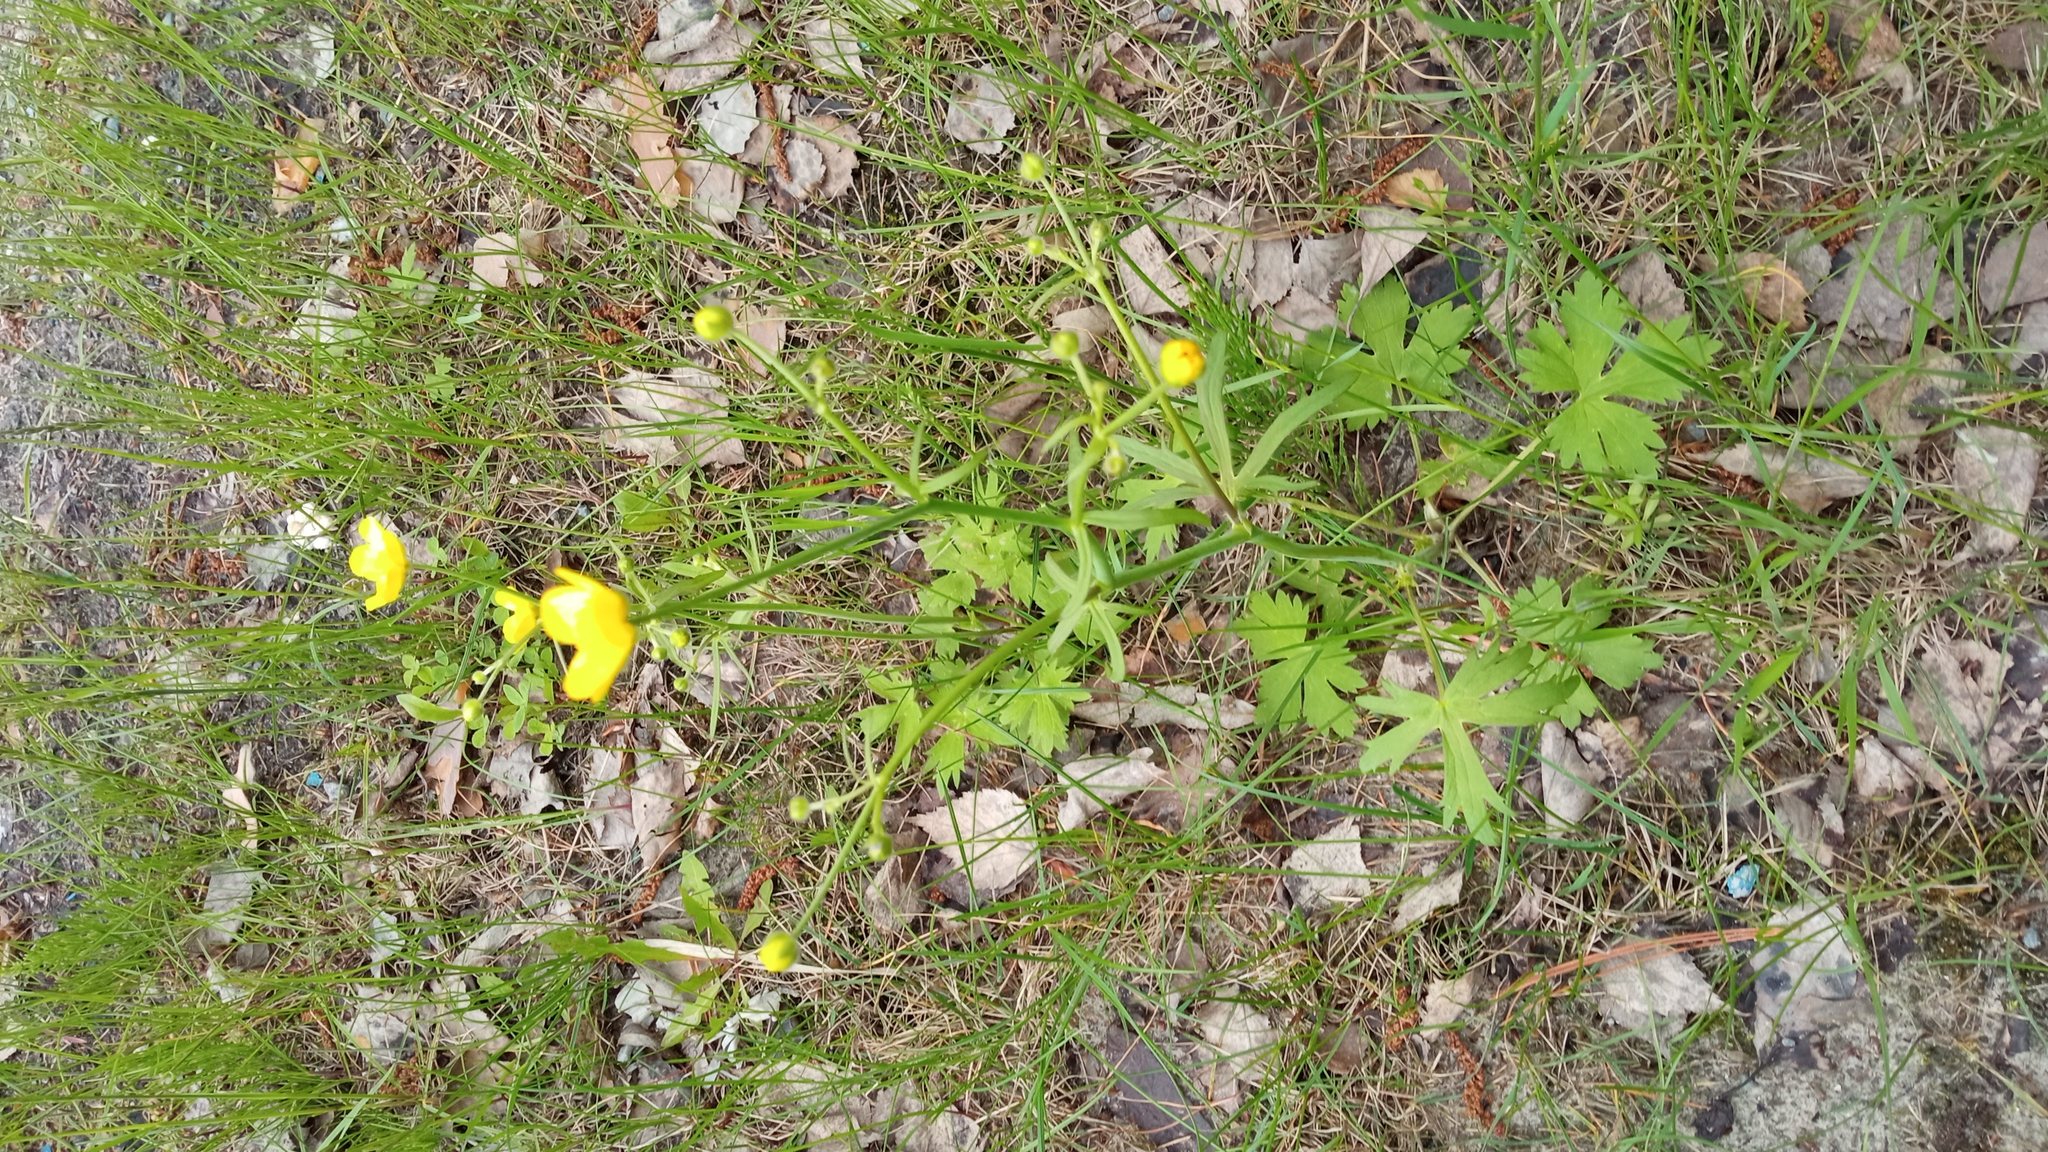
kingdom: Plantae
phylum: Tracheophyta
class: Magnoliopsida
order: Ranunculales
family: Ranunculaceae
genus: Ranunculus
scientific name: Ranunculus propinquus
